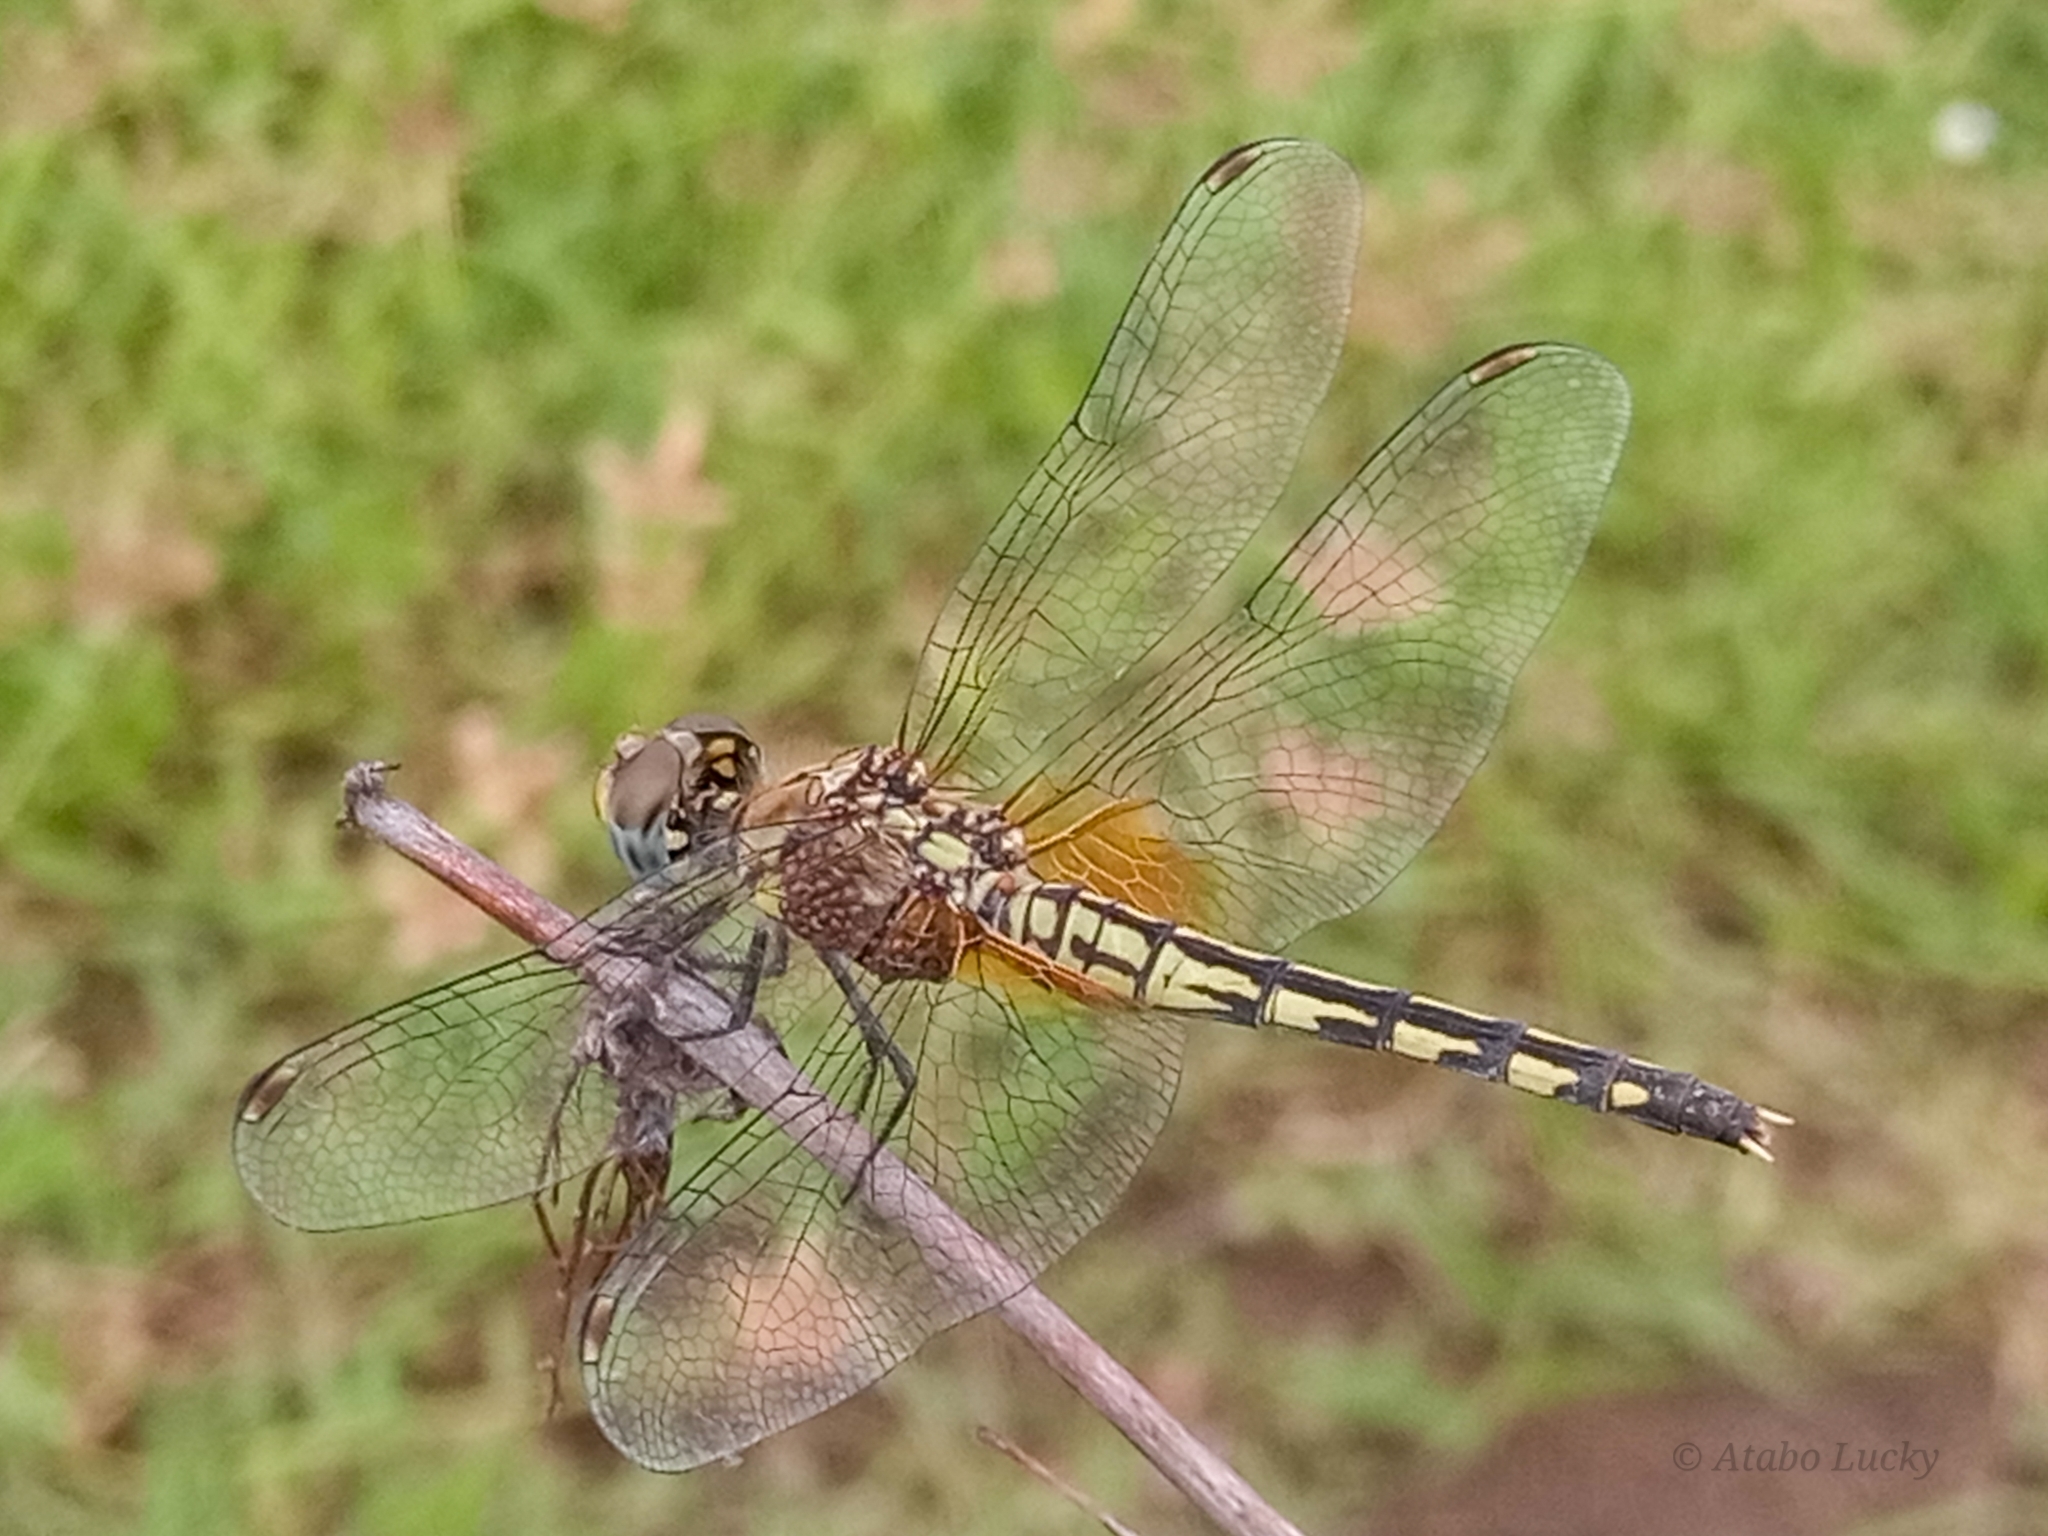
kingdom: Animalia
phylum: Arthropoda
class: Insecta
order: Odonata
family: Libellulidae
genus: Diplacodes
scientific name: Diplacodes luminans
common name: Barbet percher
